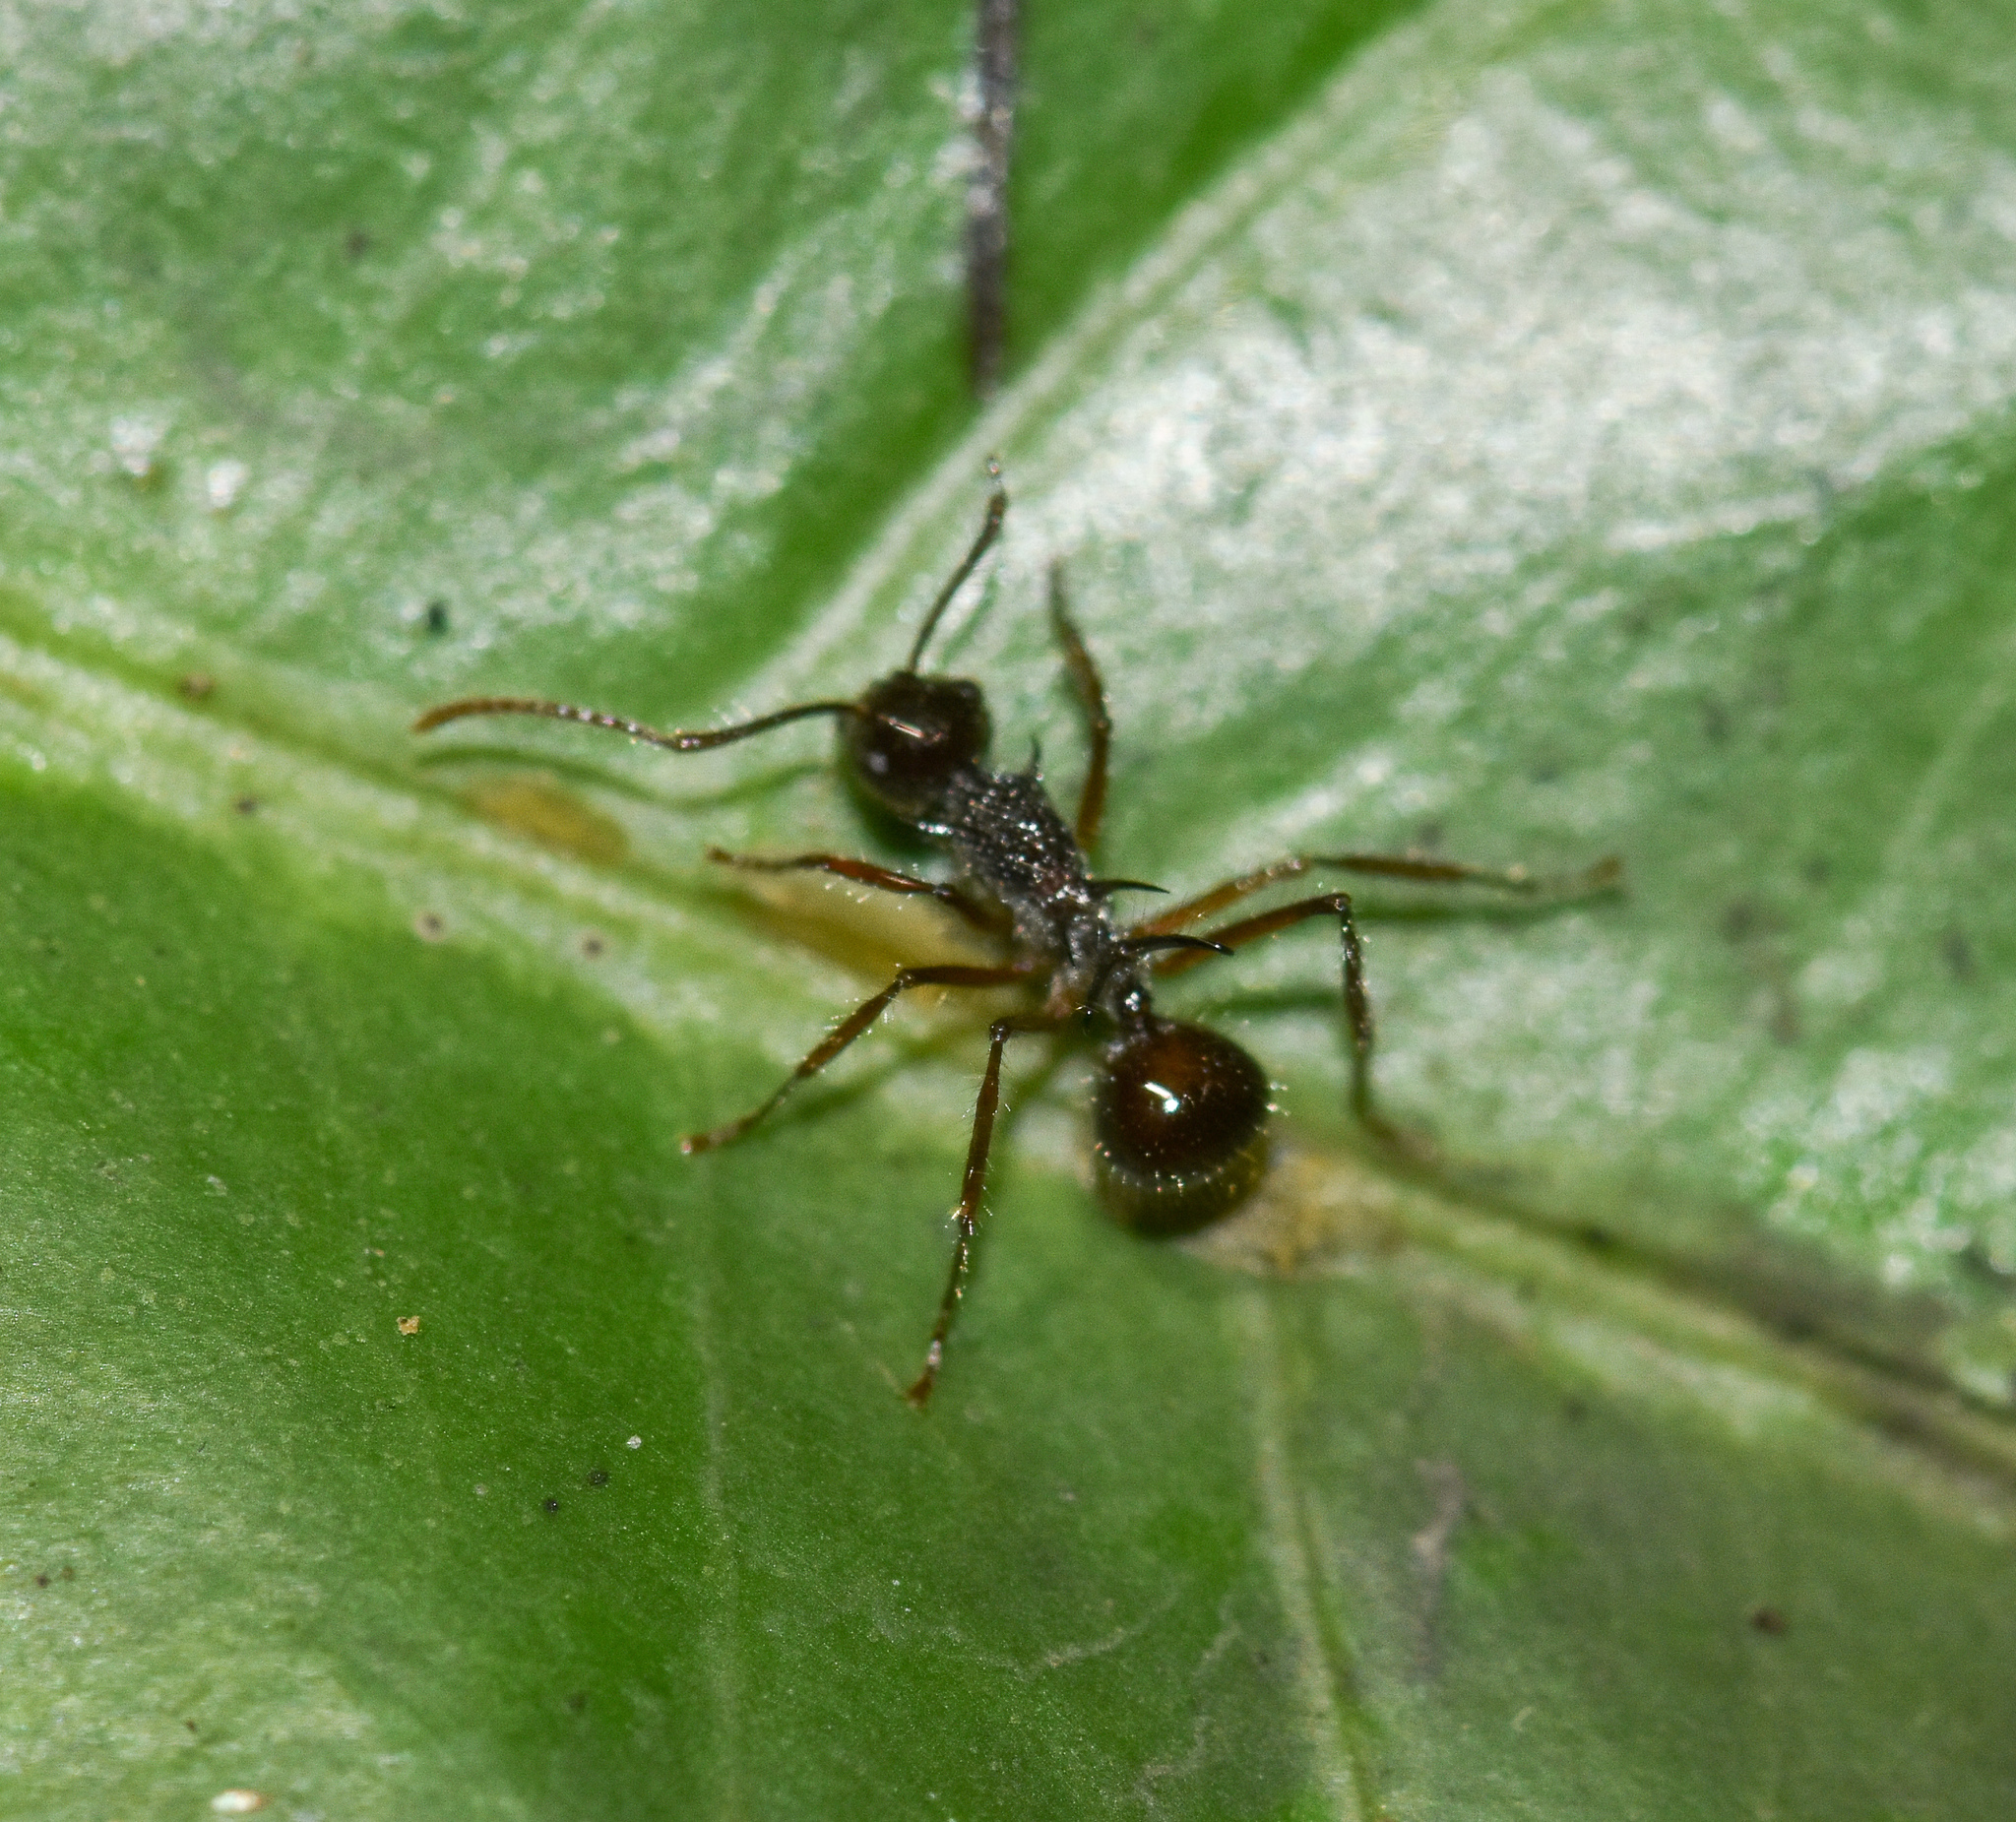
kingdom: Animalia
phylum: Arthropoda
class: Insecta
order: Hymenoptera
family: Formicidae
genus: Polyrhachis
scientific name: Polyrhachis furcata
